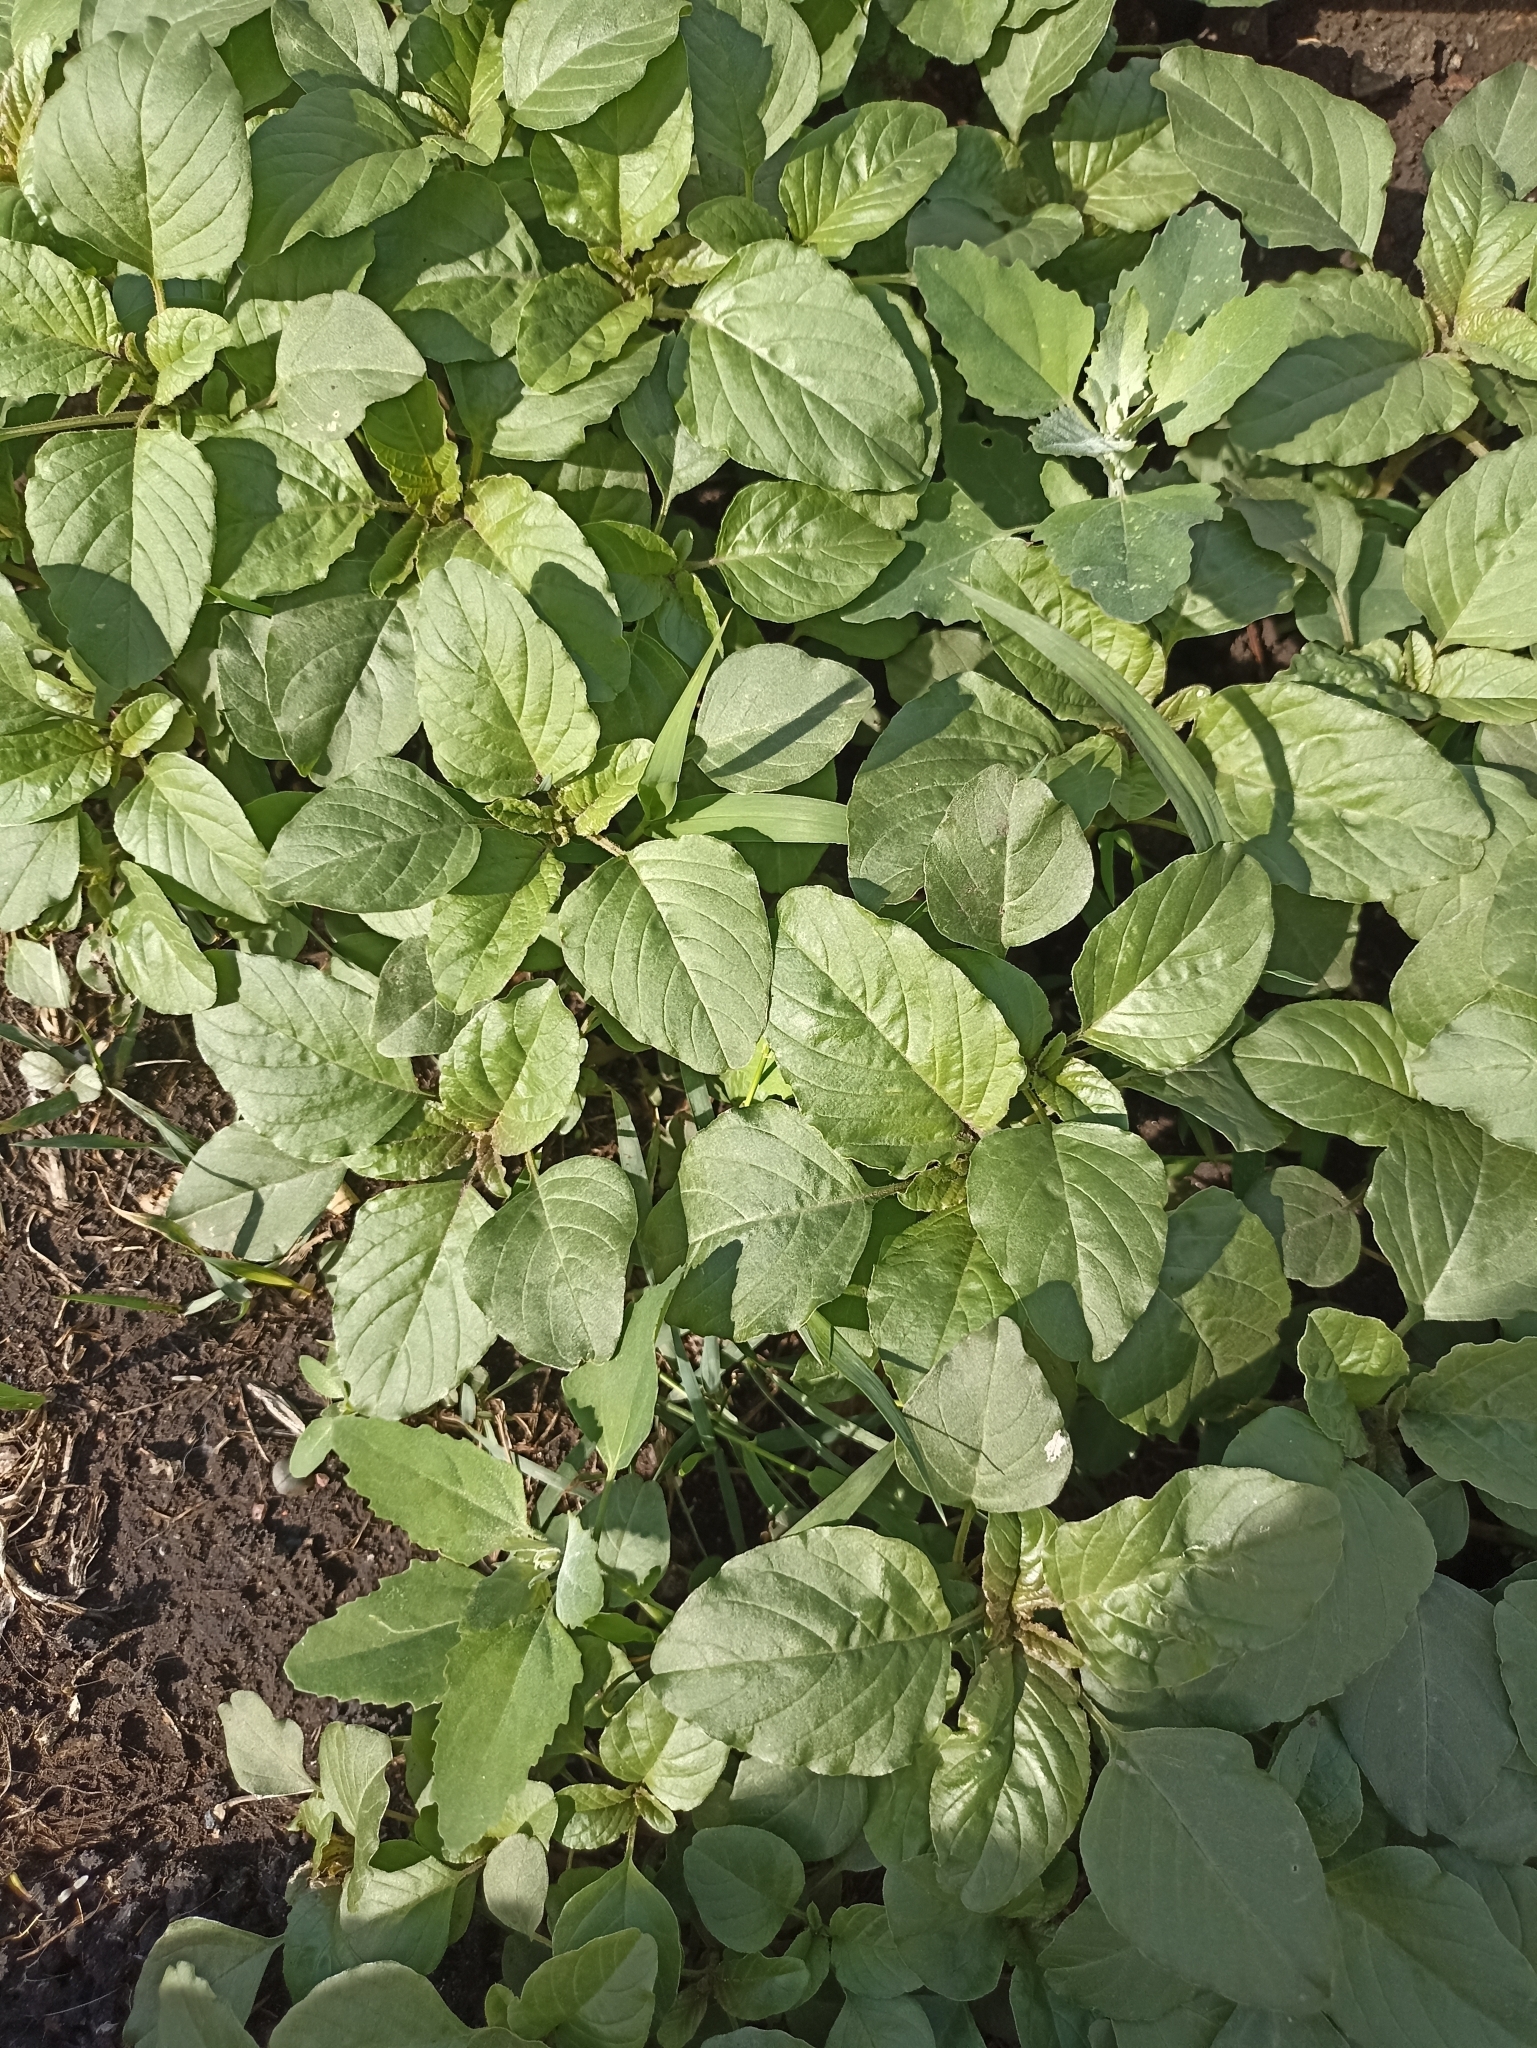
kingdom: Plantae
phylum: Tracheophyta
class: Magnoliopsida
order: Caryophyllales
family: Amaranthaceae
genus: Amaranthus
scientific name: Amaranthus retroflexus
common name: Redroot amaranth
